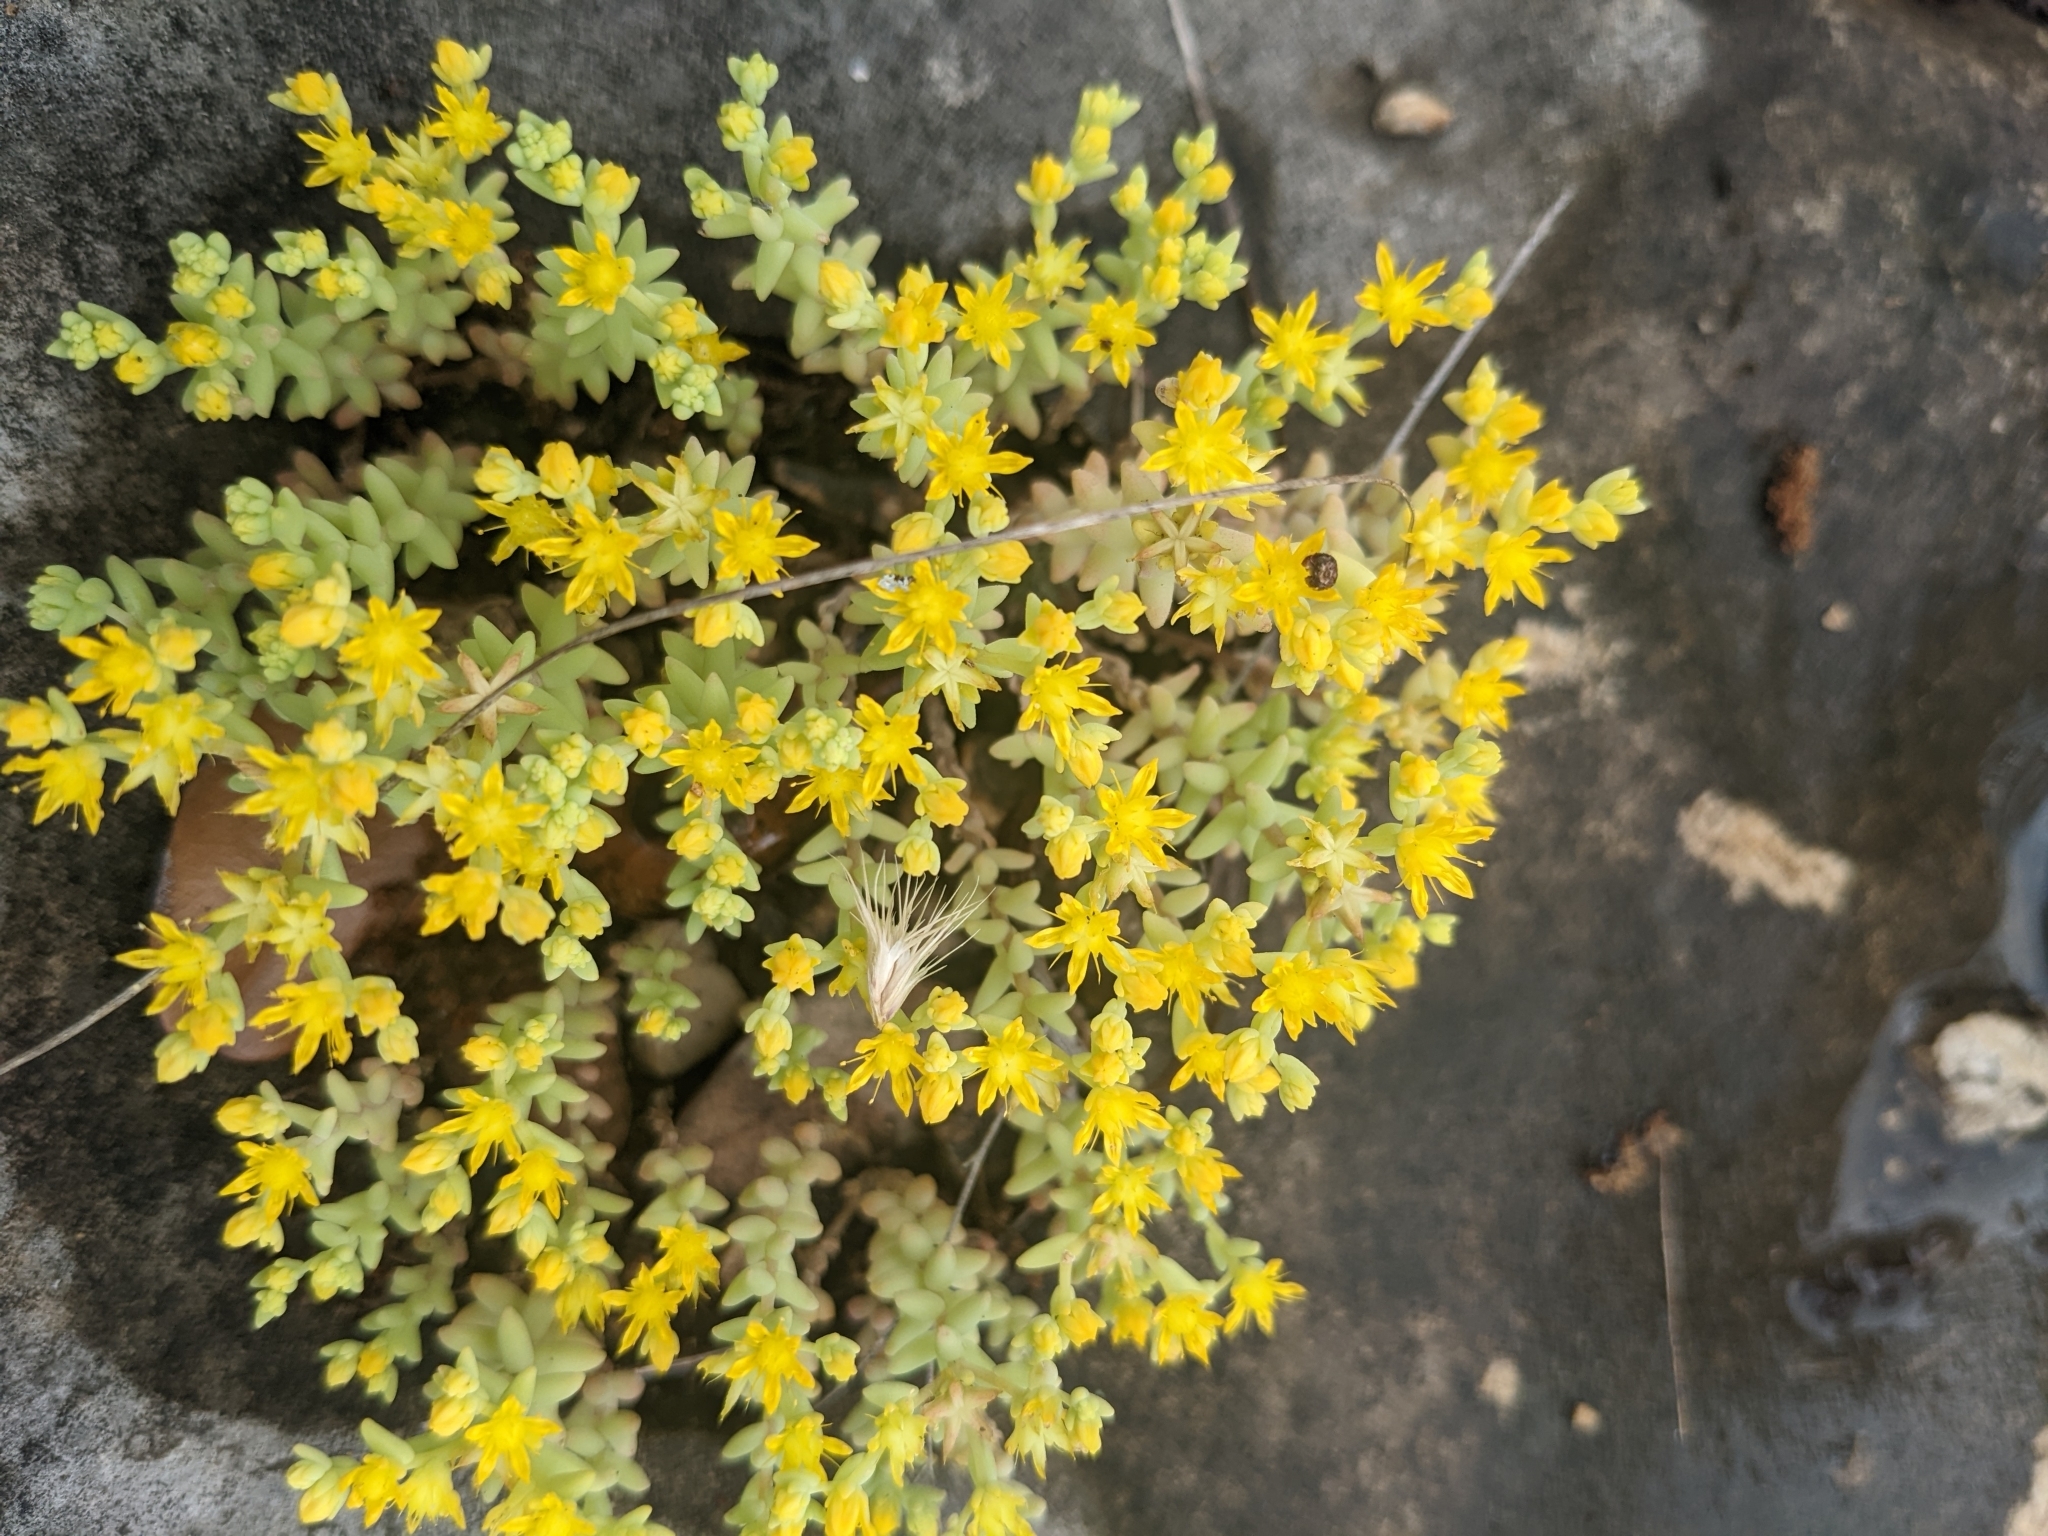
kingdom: Plantae
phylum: Tracheophyta
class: Magnoliopsida
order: Saxifragales
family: Crassulaceae
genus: Sedum
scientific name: Sedum nuttallii
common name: Yellow stonecrop
